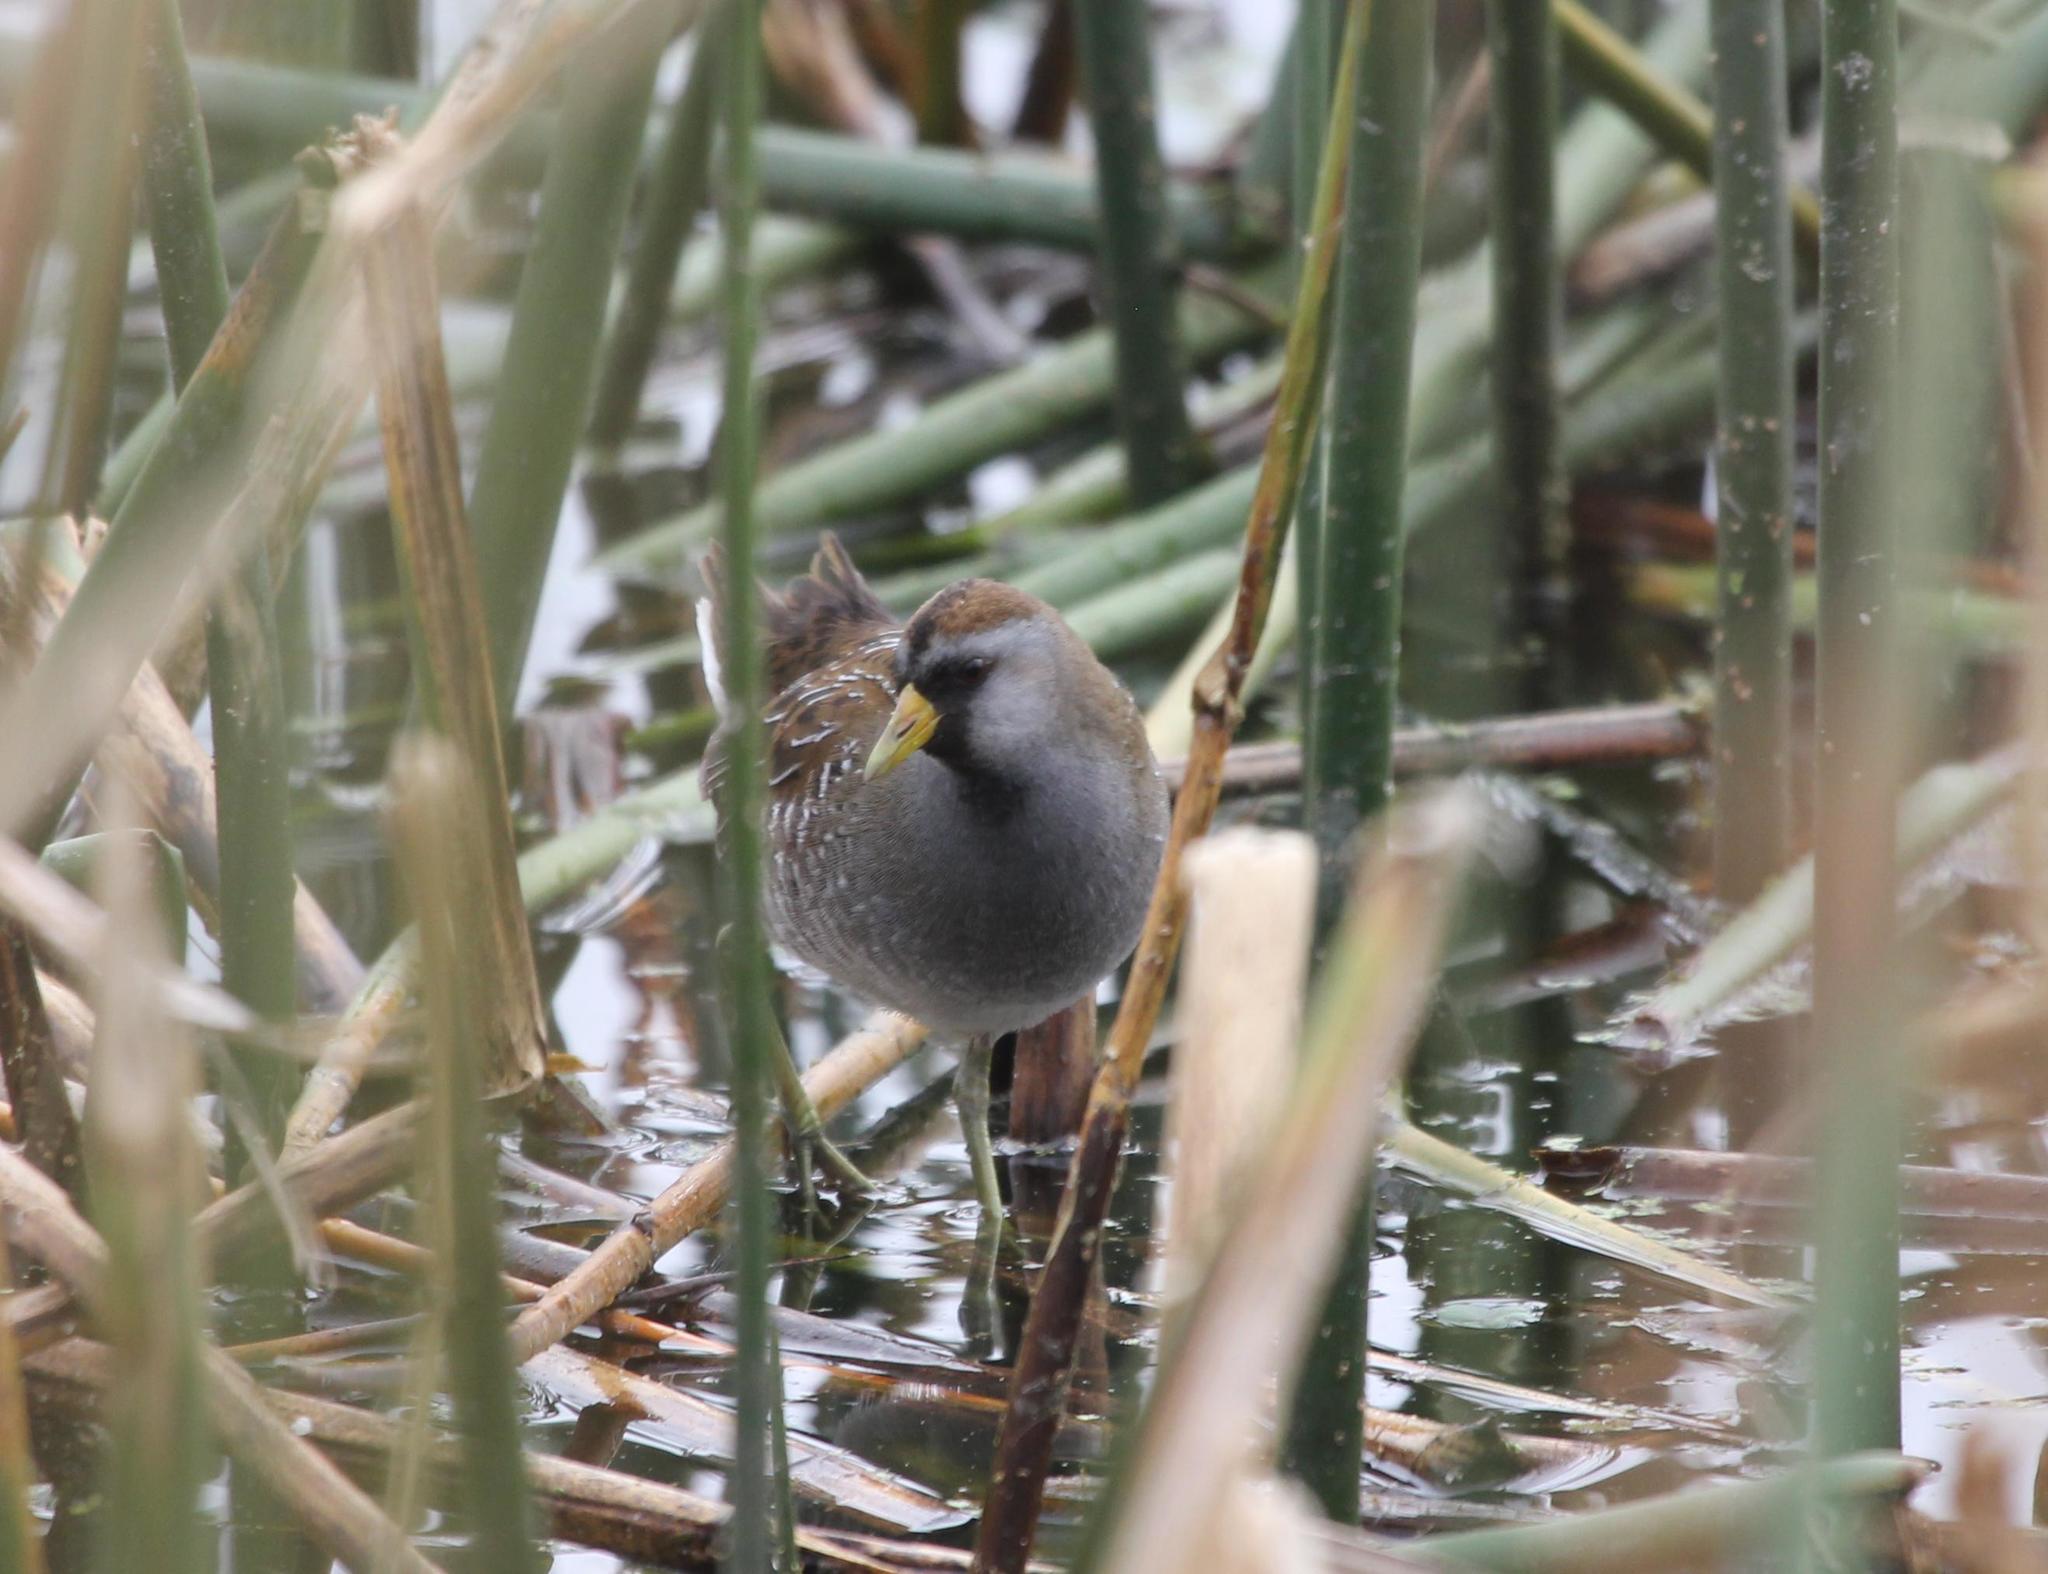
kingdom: Animalia
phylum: Chordata
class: Aves
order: Gruiformes
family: Rallidae
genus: Porzana
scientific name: Porzana carolina
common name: Sora
